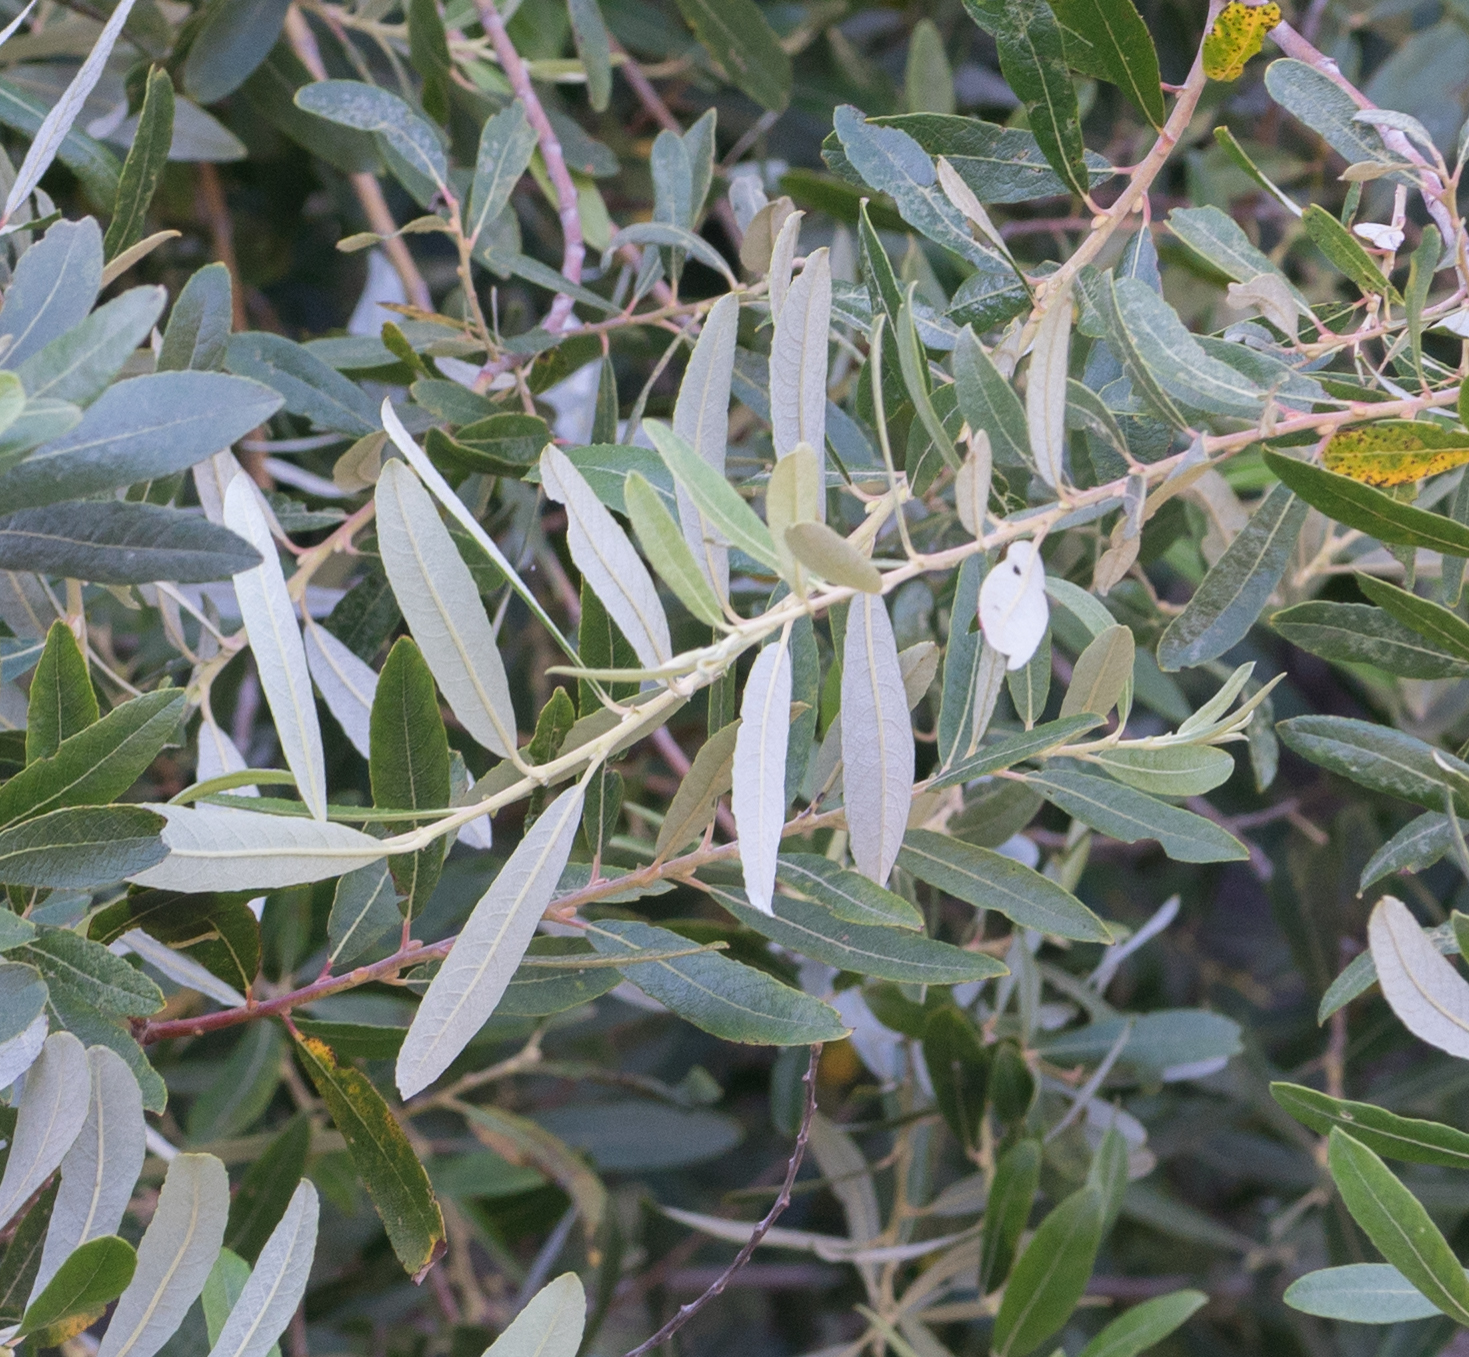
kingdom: Plantae
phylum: Tracheophyta
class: Magnoliopsida
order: Malpighiales
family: Salicaceae
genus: Salix
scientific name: Salix lasiolepis
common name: Arroyo willow
